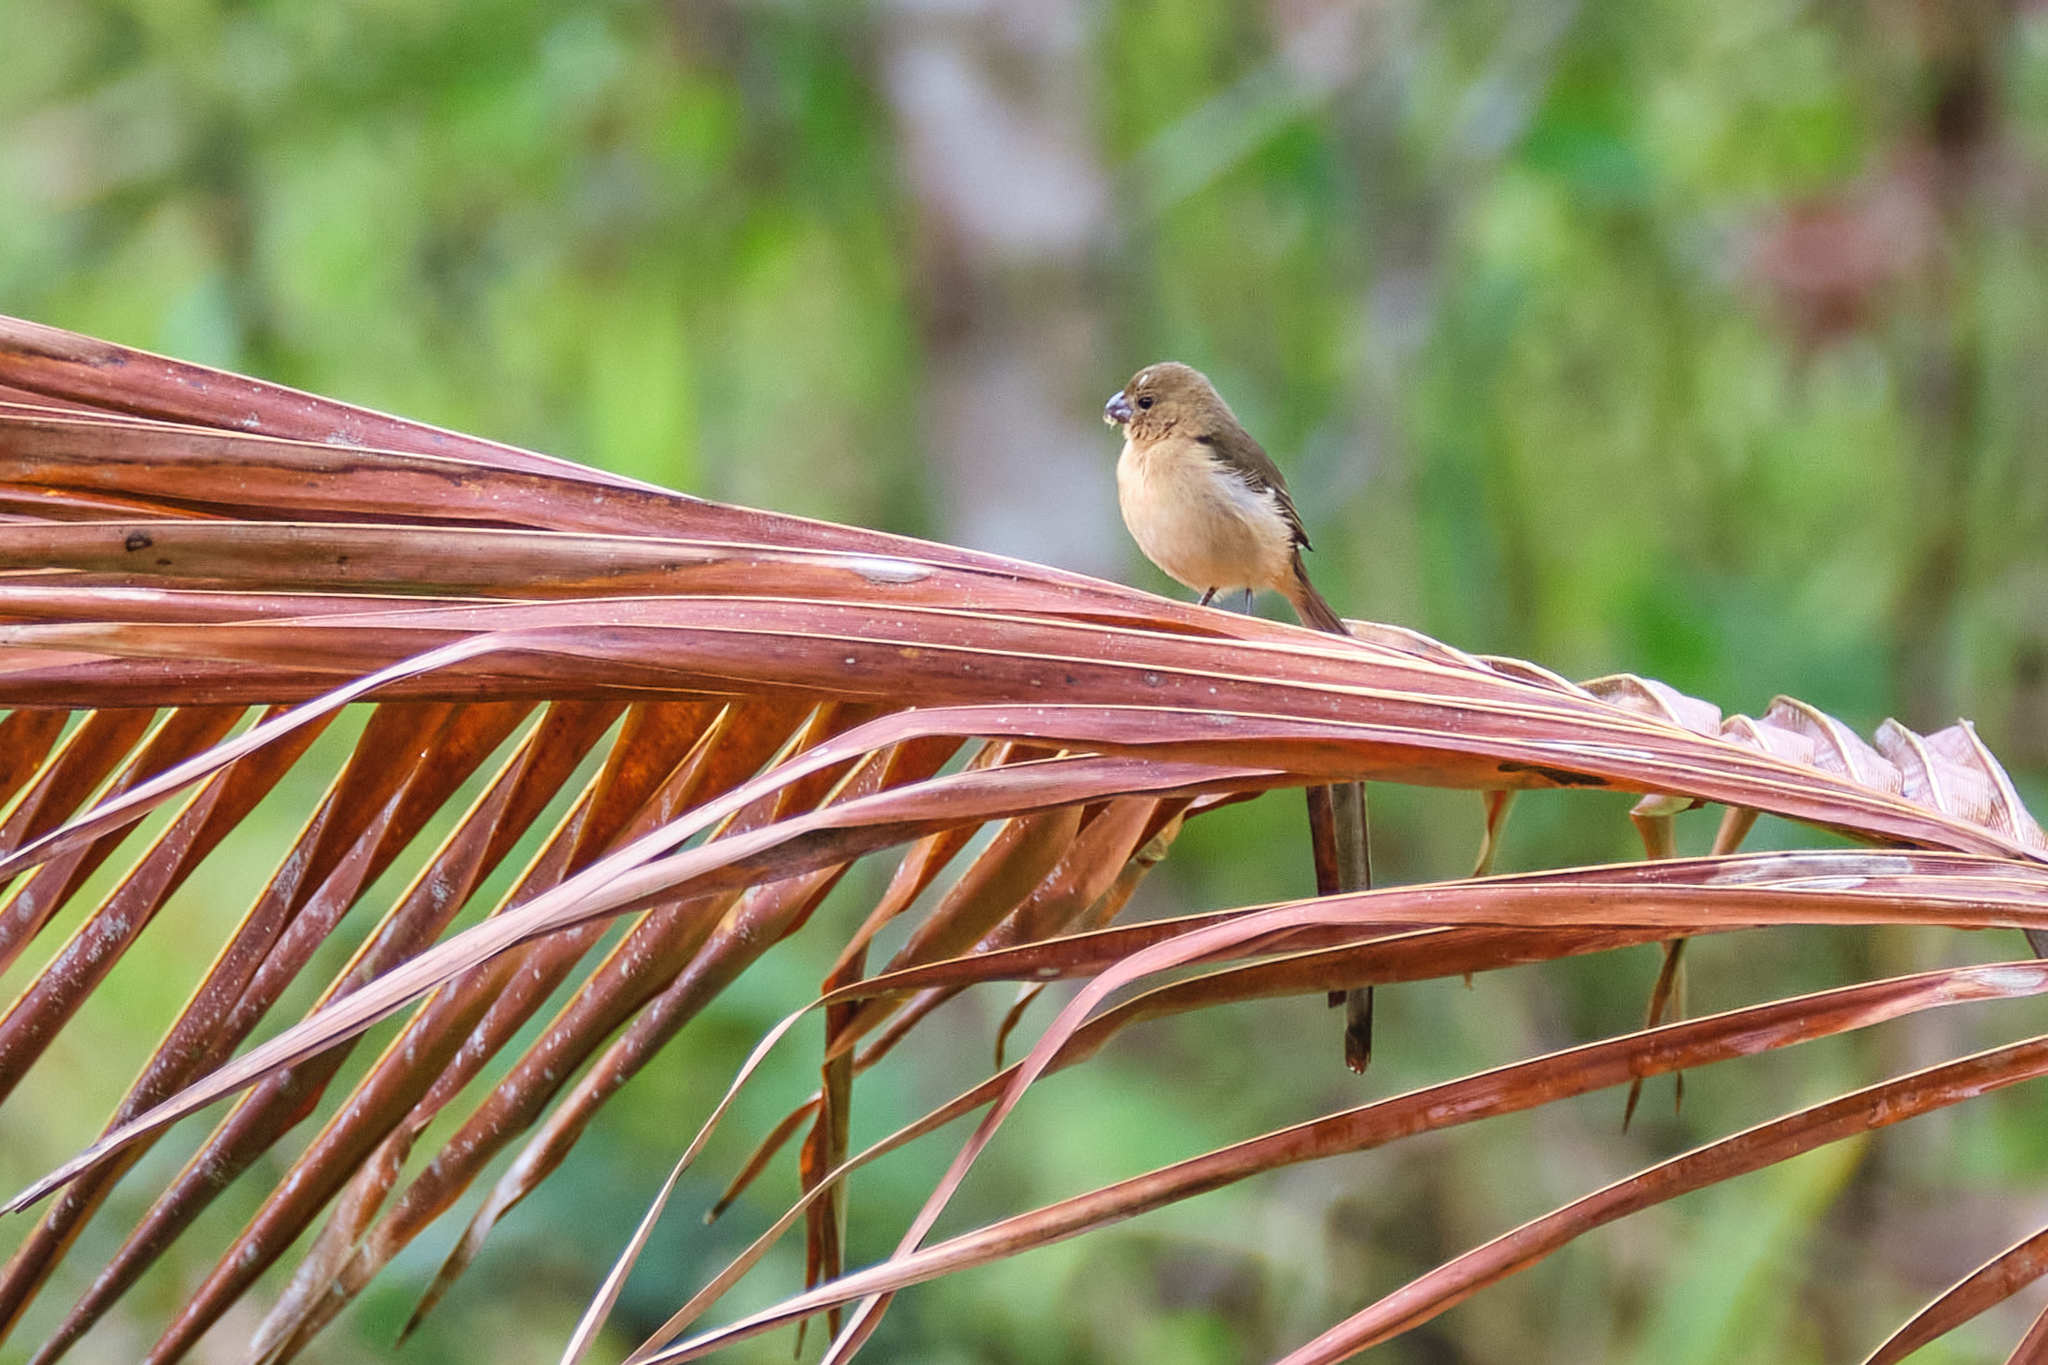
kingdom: Animalia
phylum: Chordata
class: Aves
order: Passeriformes
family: Thraupidae
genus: Sporophila
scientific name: Sporophila morelleti
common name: Morelet's seedeater
